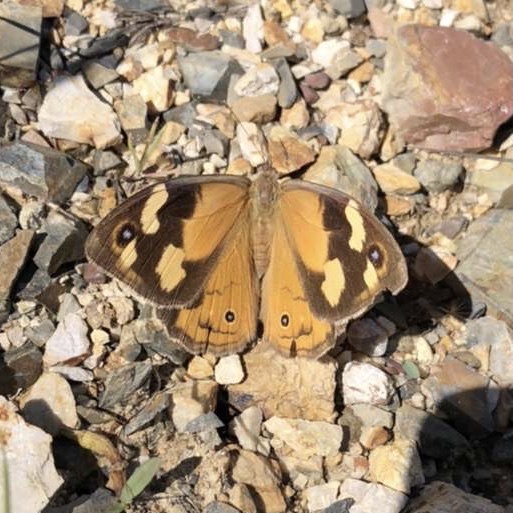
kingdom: Animalia
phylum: Arthropoda
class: Insecta
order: Lepidoptera
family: Nymphalidae
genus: Heteronympha
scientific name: Heteronympha merope
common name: Common brown
